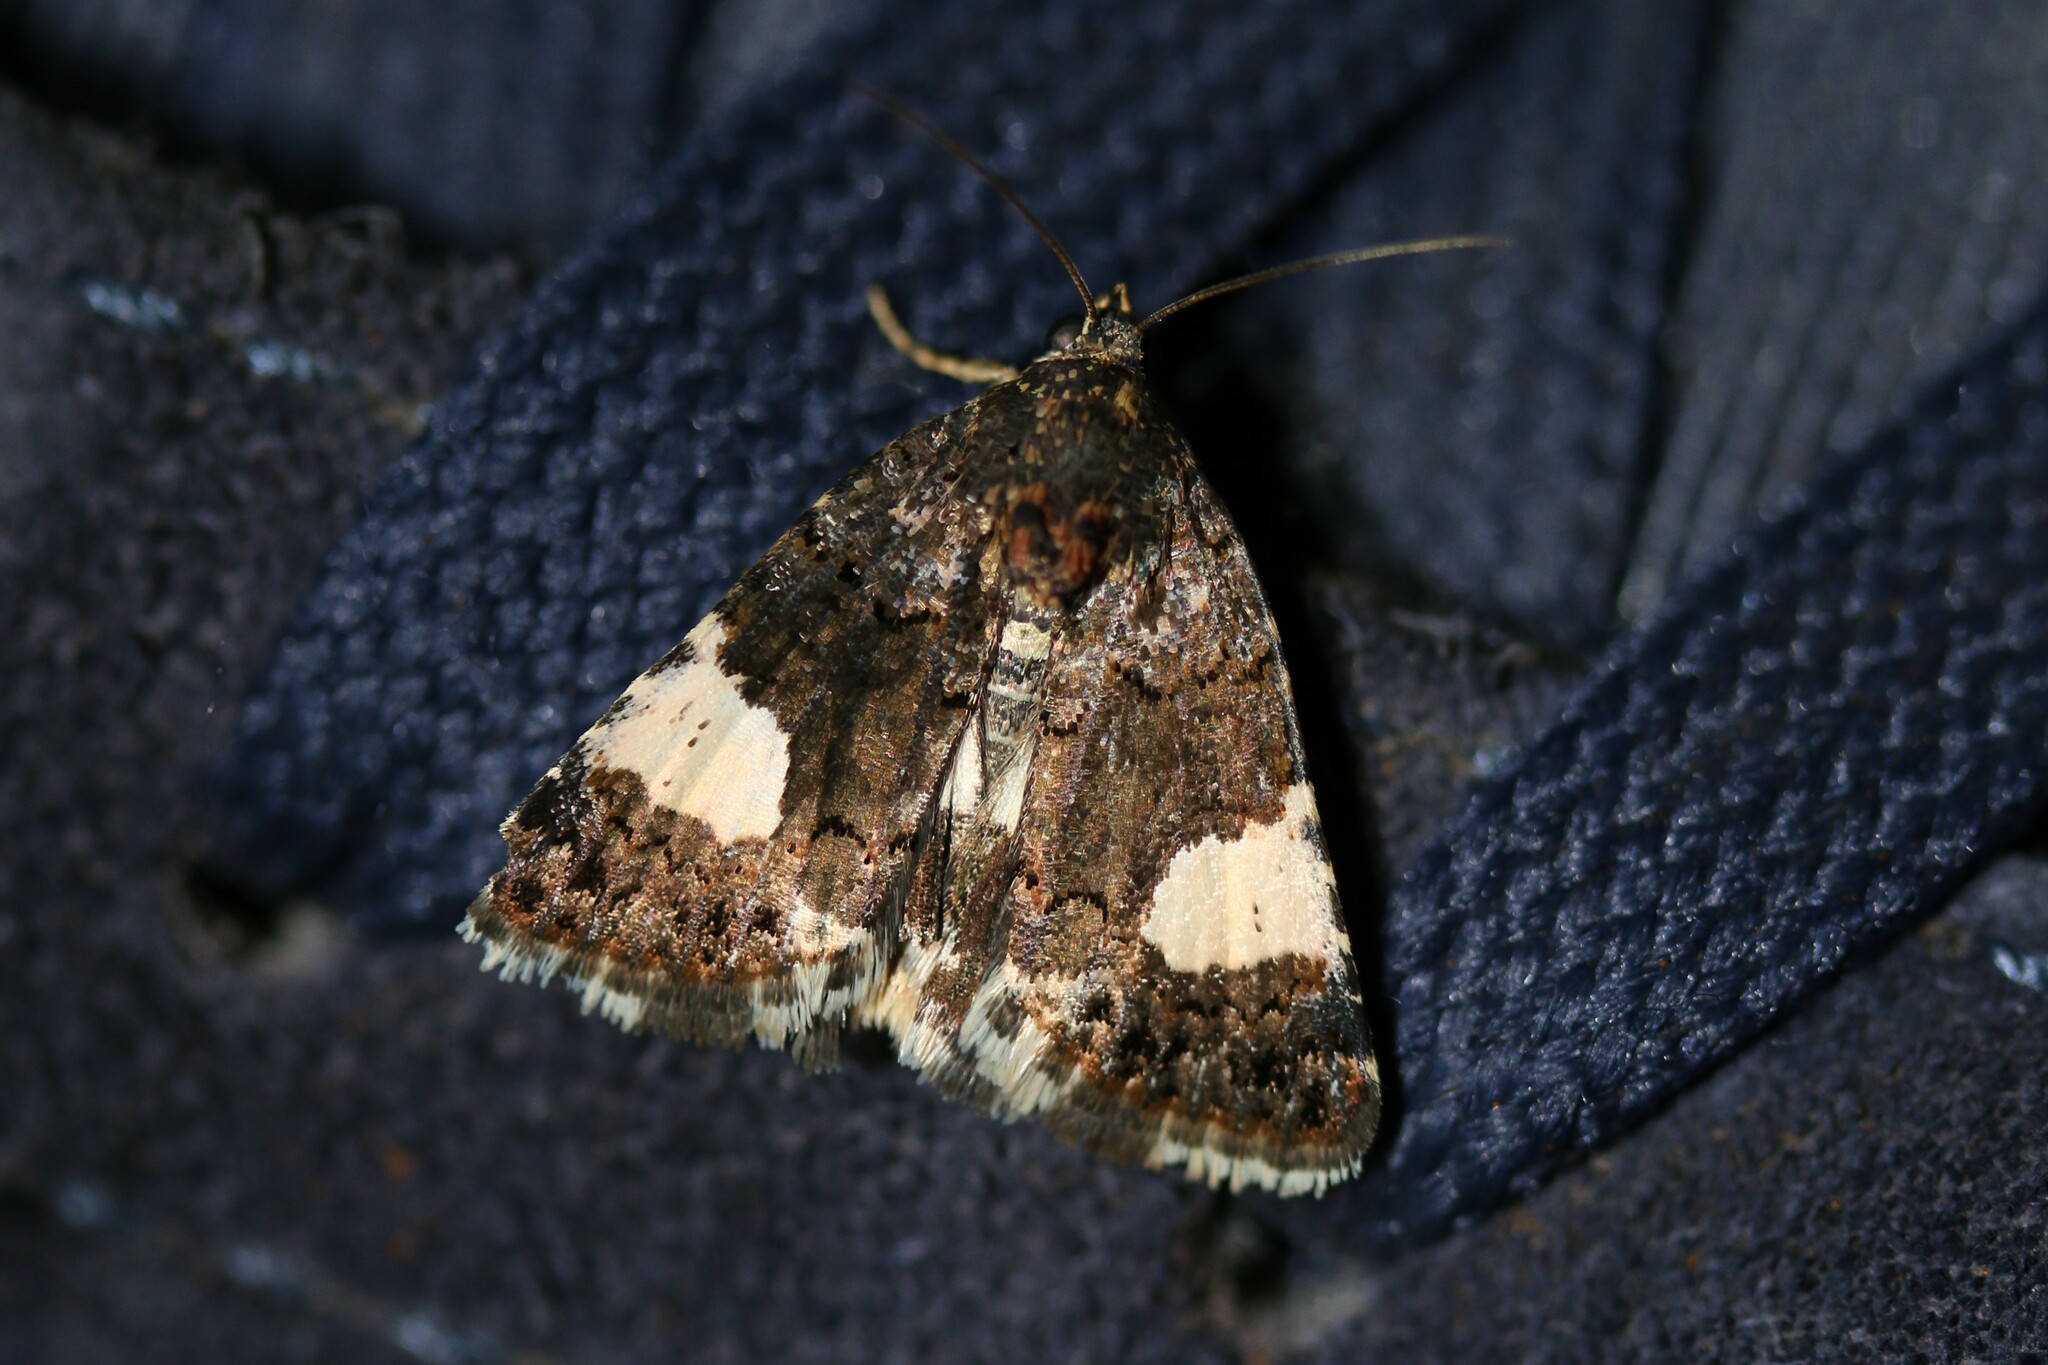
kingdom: Animalia
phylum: Arthropoda
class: Insecta
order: Lepidoptera
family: Erebidae
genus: Tyta
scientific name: Tyta luctuosa
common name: Four-spotted
